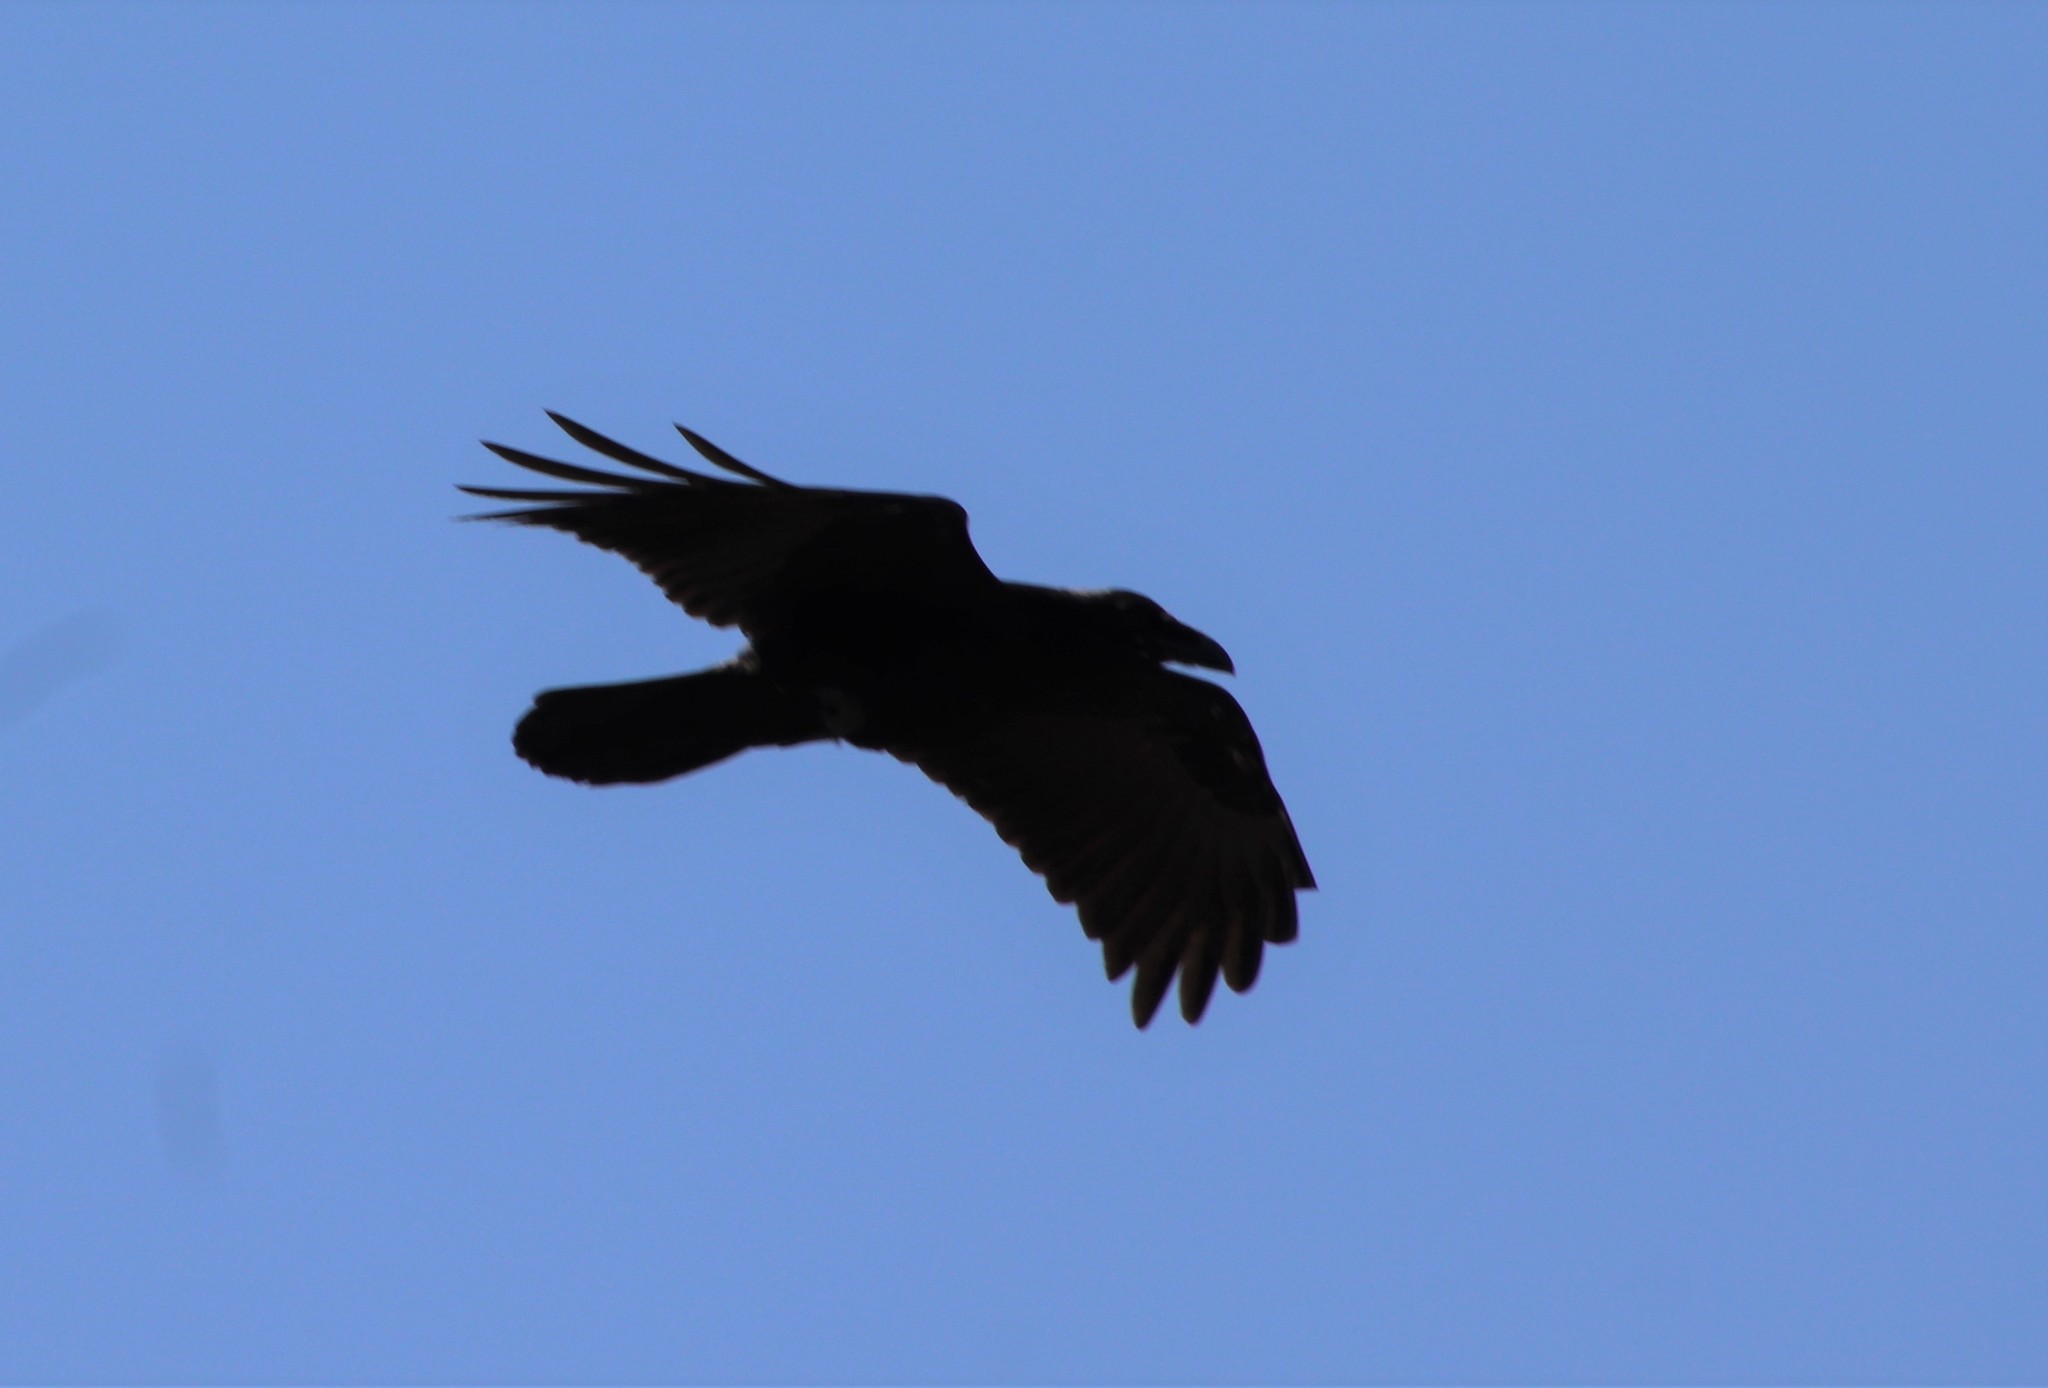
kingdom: Animalia
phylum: Chordata
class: Aves
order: Passeriformes
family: Corvidae
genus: Corvus
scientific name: Corvus corax
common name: Common raven
